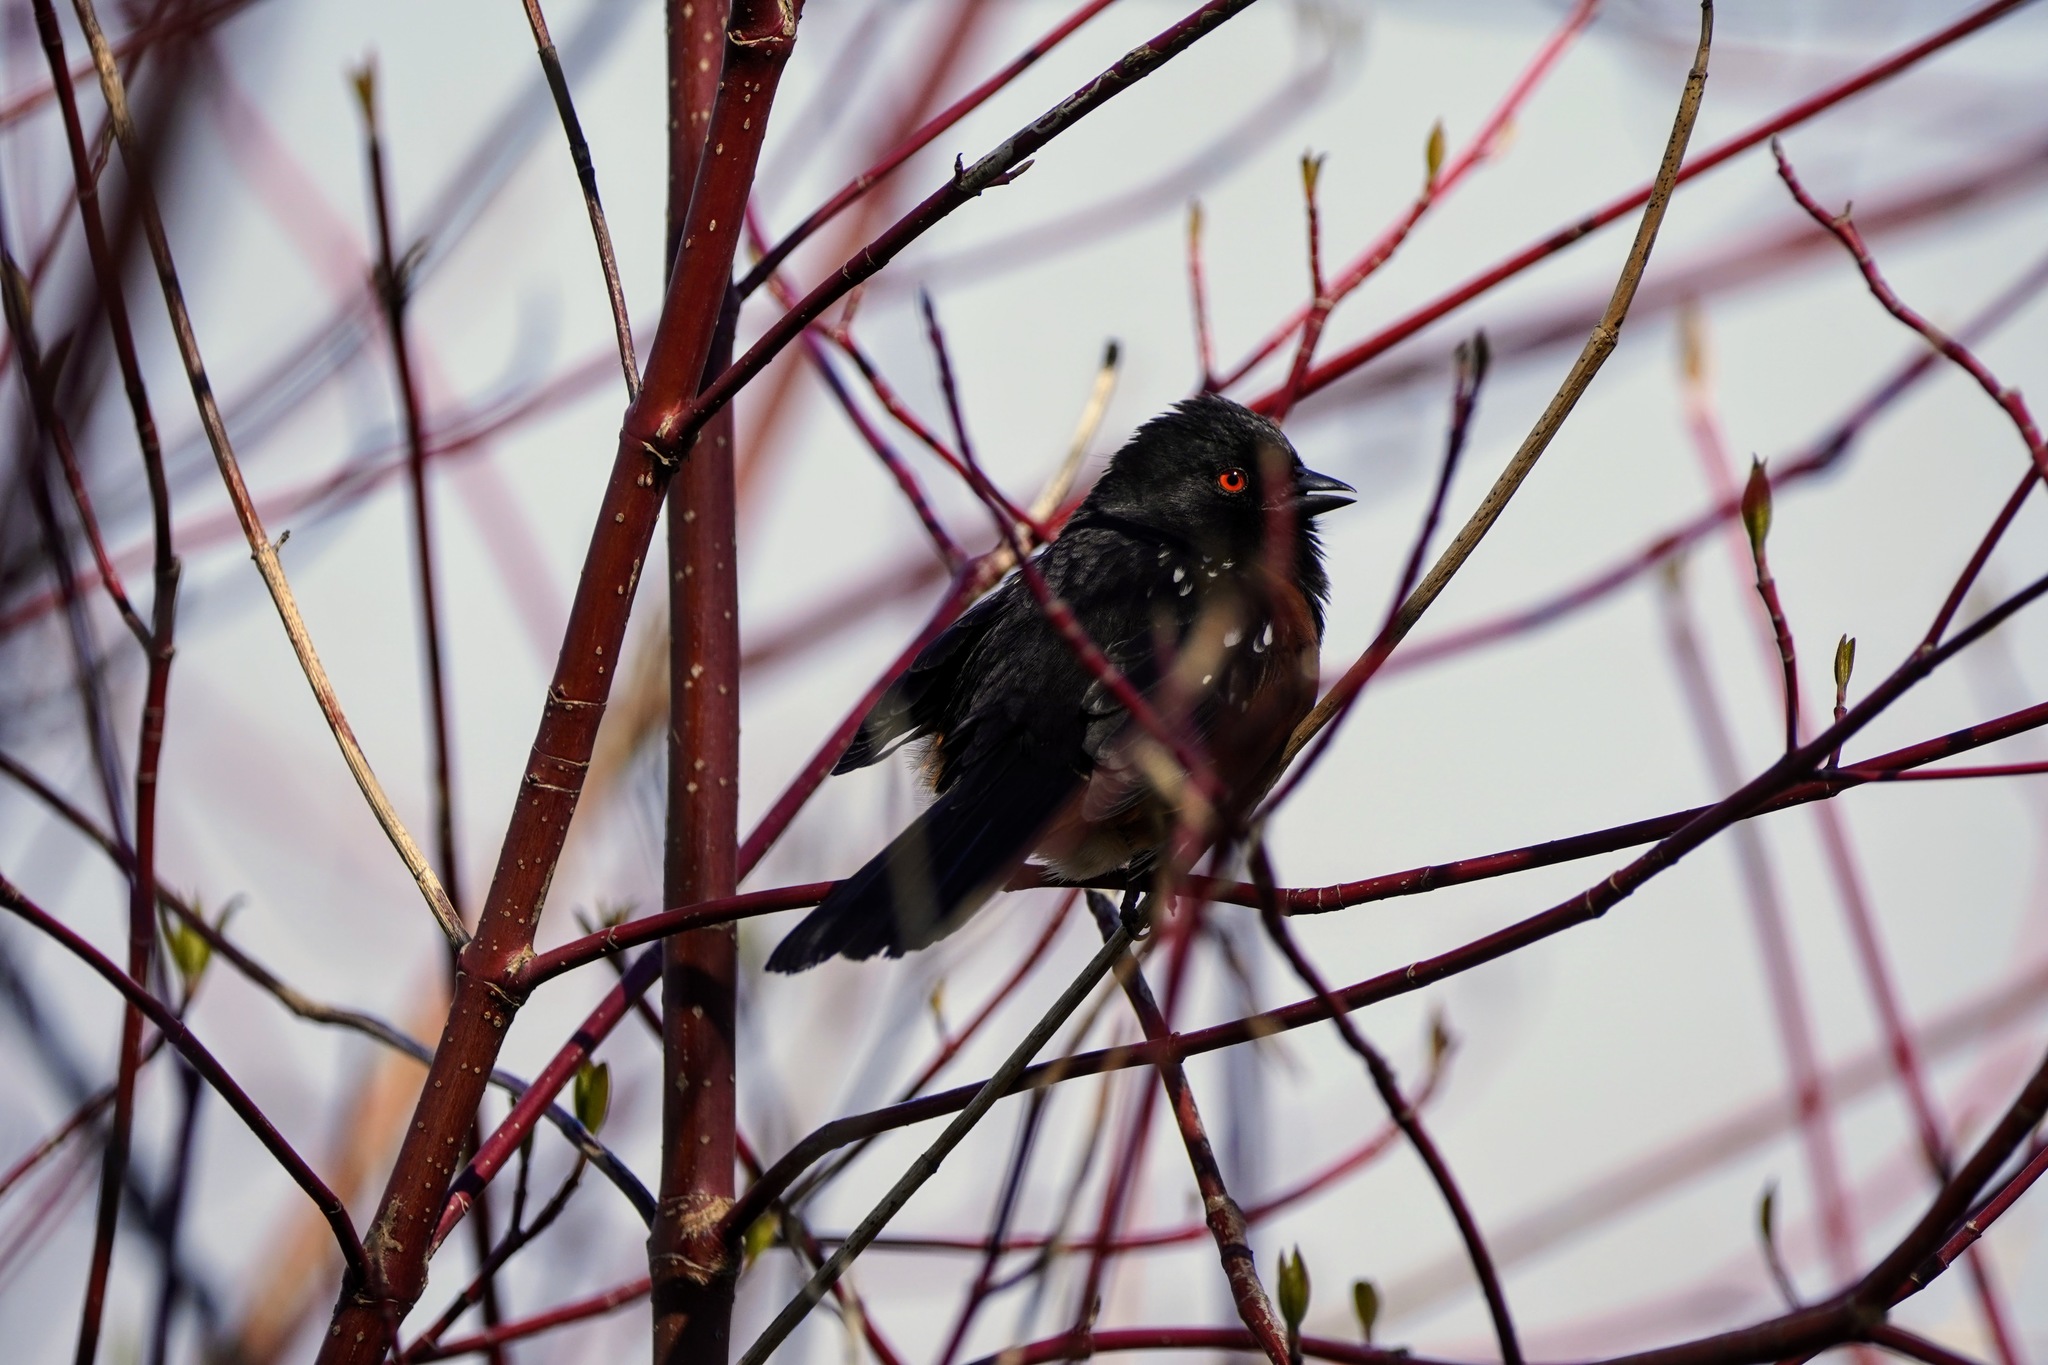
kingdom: Animalia
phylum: Chordata
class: Aves
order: Passeriformes
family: Passerellidae
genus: Pipilo
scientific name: Pipilo maculatus
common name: Spotted towhee
